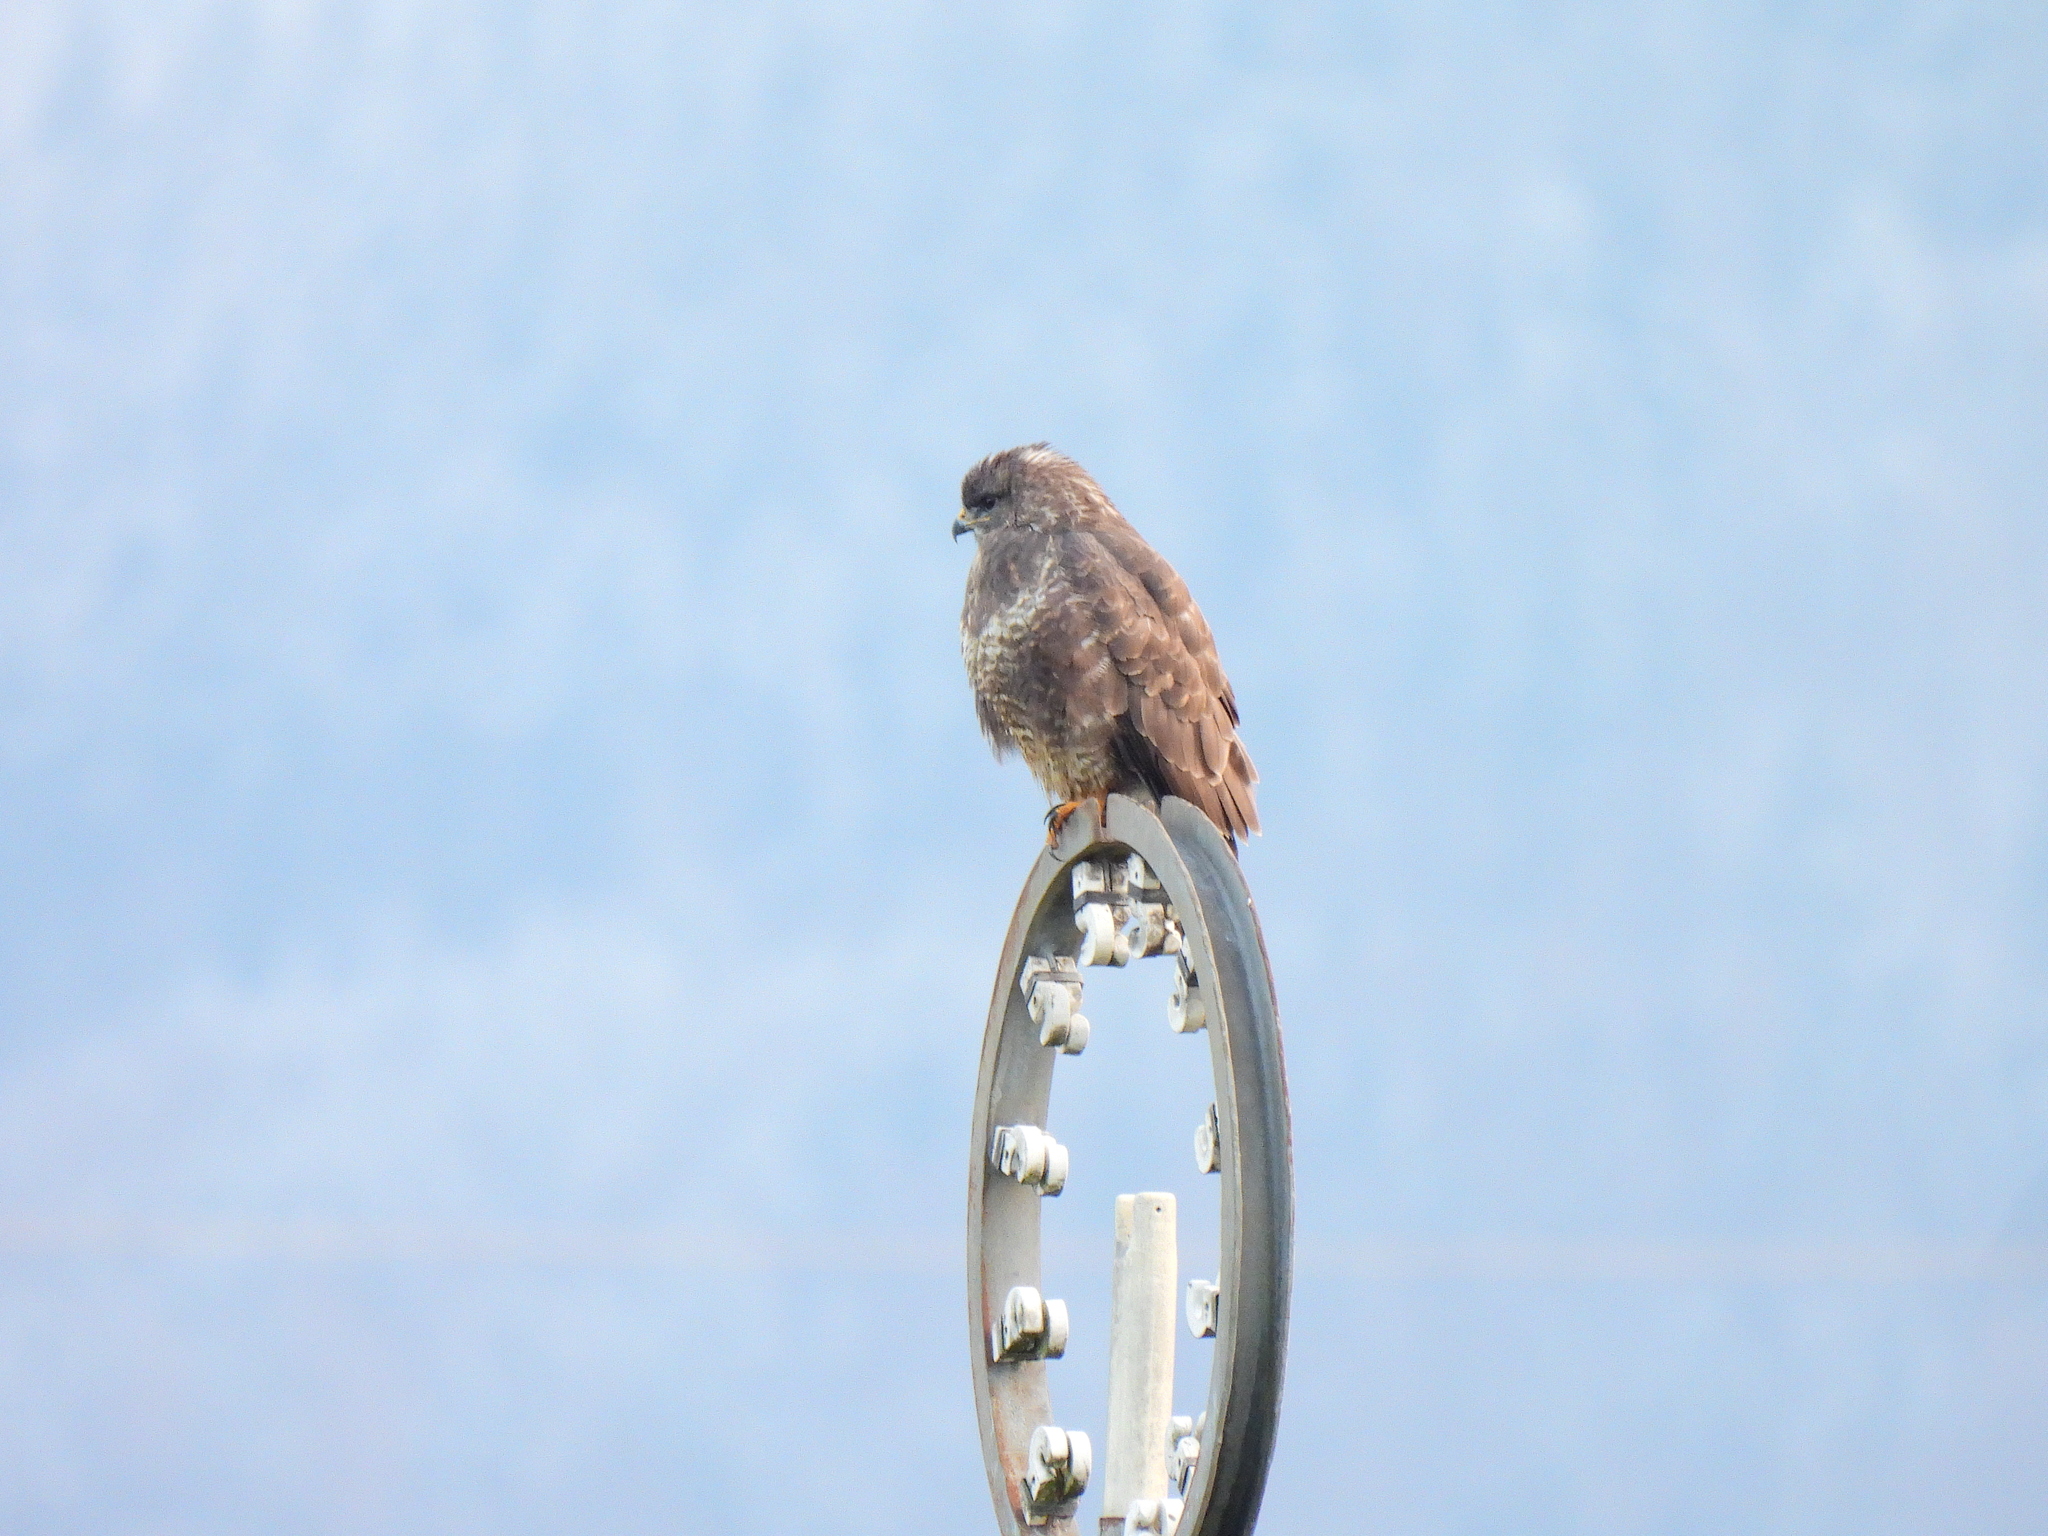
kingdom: Animalia
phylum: Chordata
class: Aves
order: Accipitriformes
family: Accipitridae
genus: Buteo
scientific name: Buteo buteo
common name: Common buzzard
